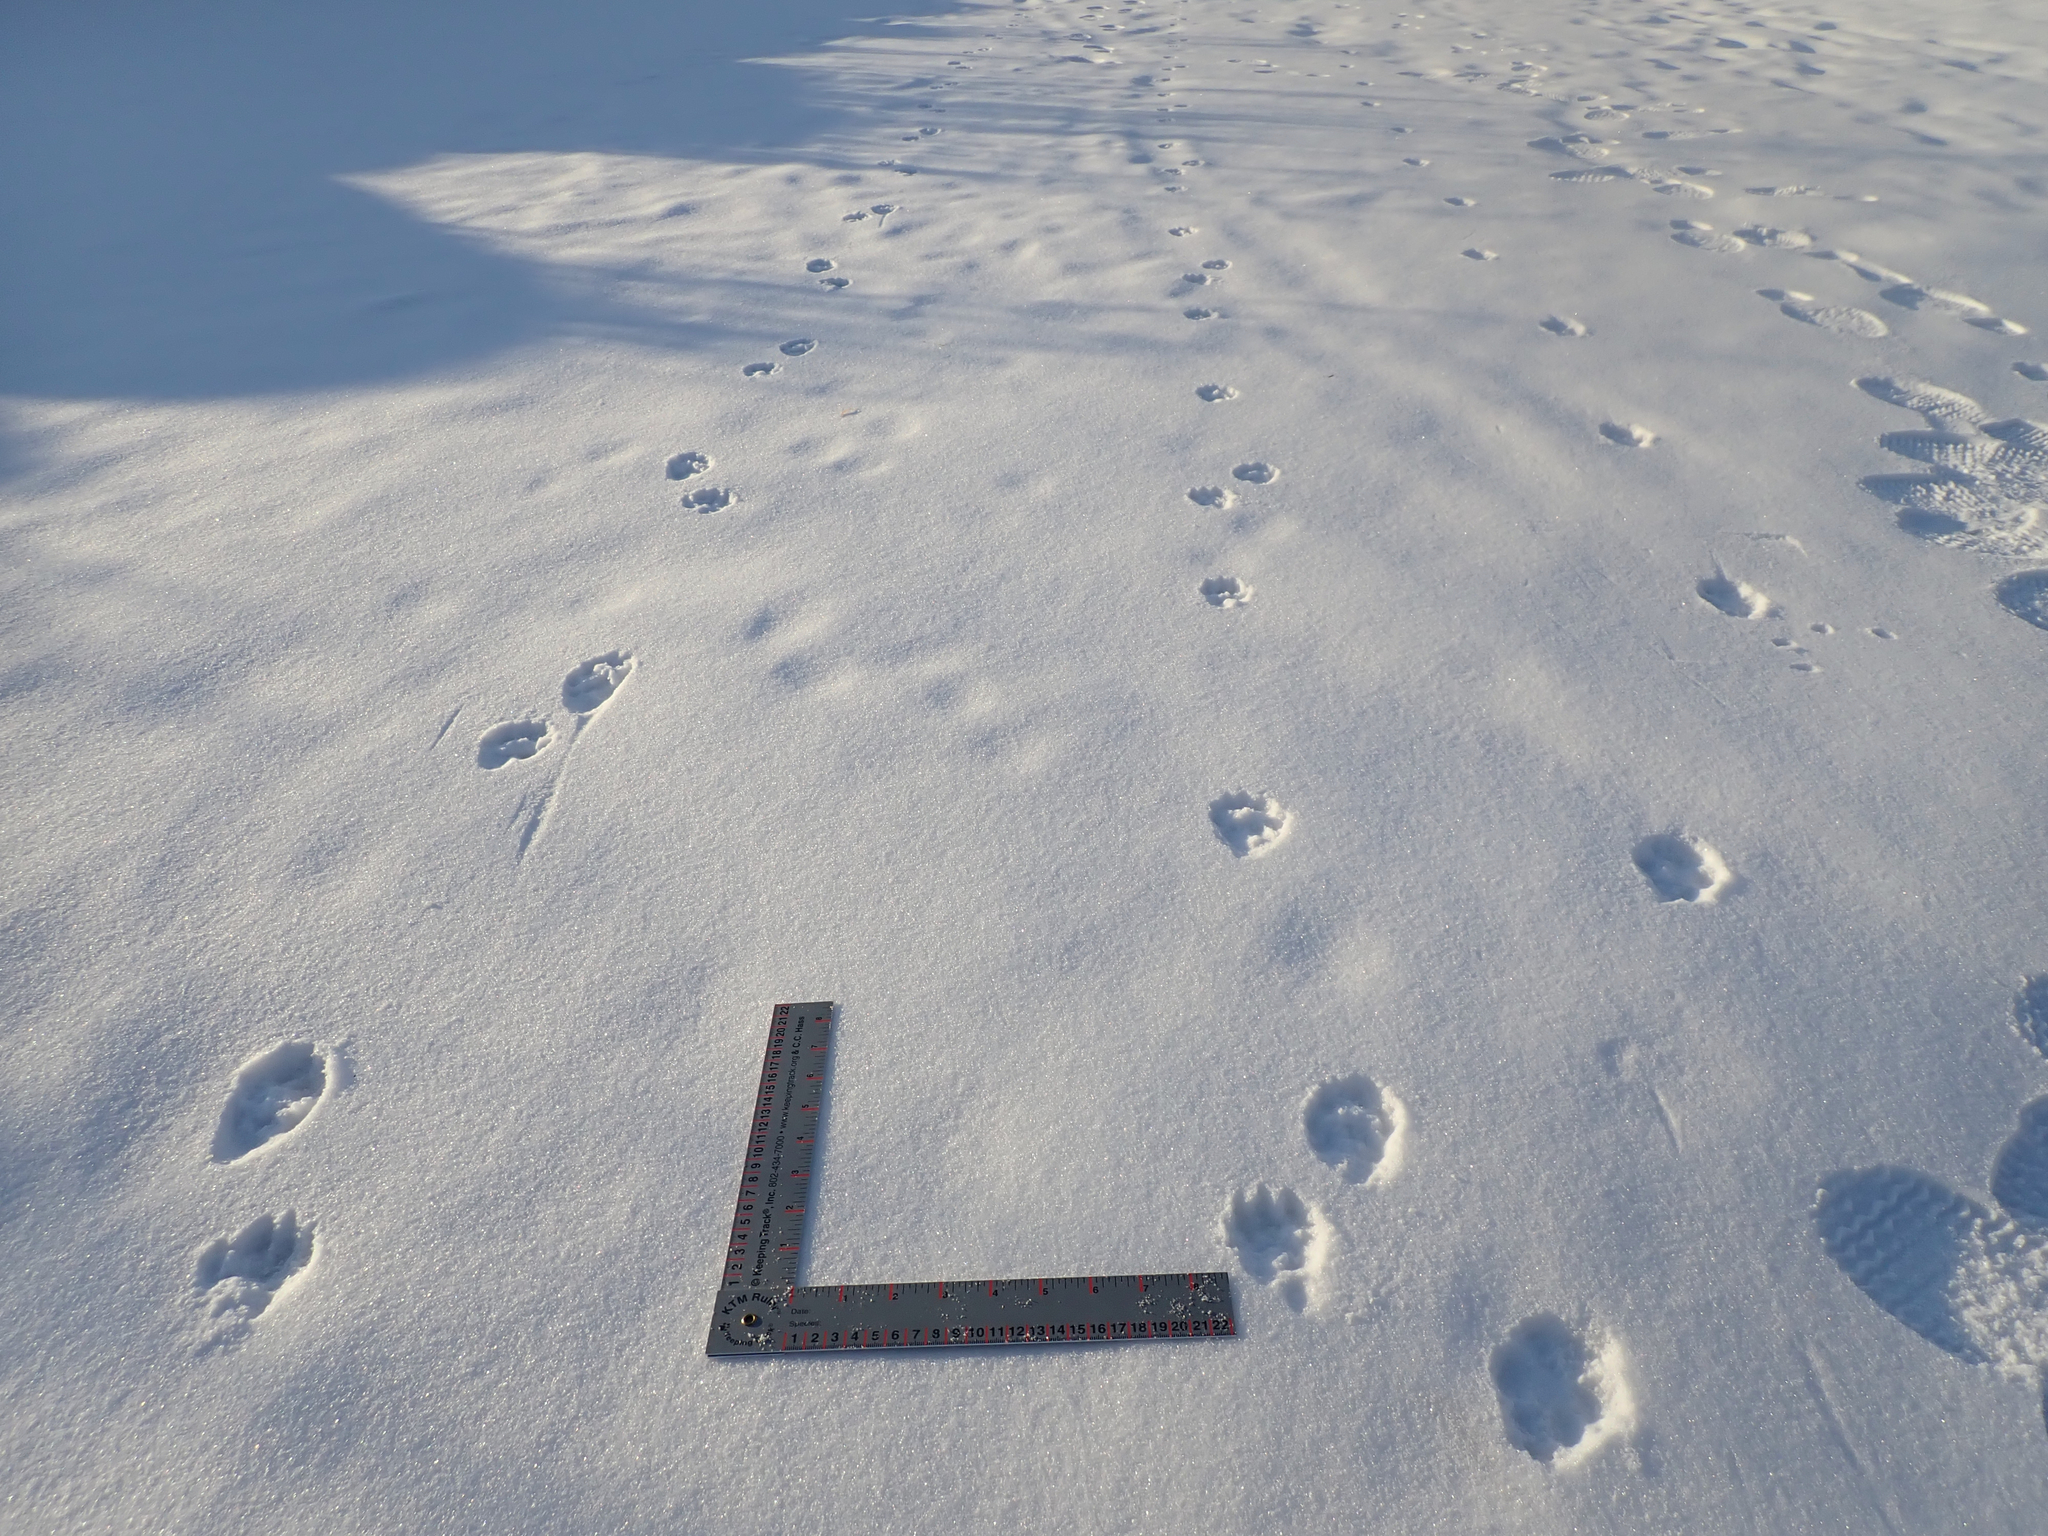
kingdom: Animalia
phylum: Chordata
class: Mammalia
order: Carnivora
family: Procyonidae
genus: Procyon
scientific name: Procyon lotor
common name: Raccoon
